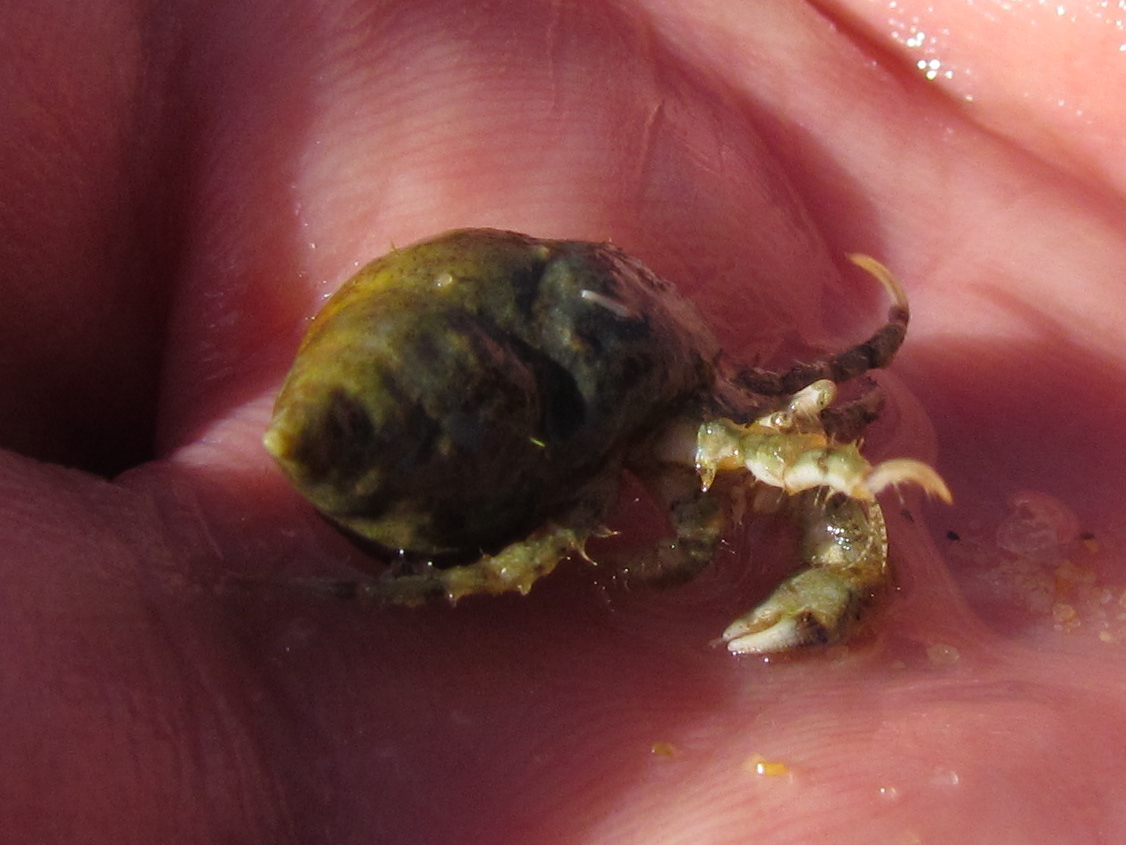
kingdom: Animalia
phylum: Arthropoda
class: Malacostraca
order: Decapoda
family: Diogenidae
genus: Diogenes
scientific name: Diogenes pugilator
